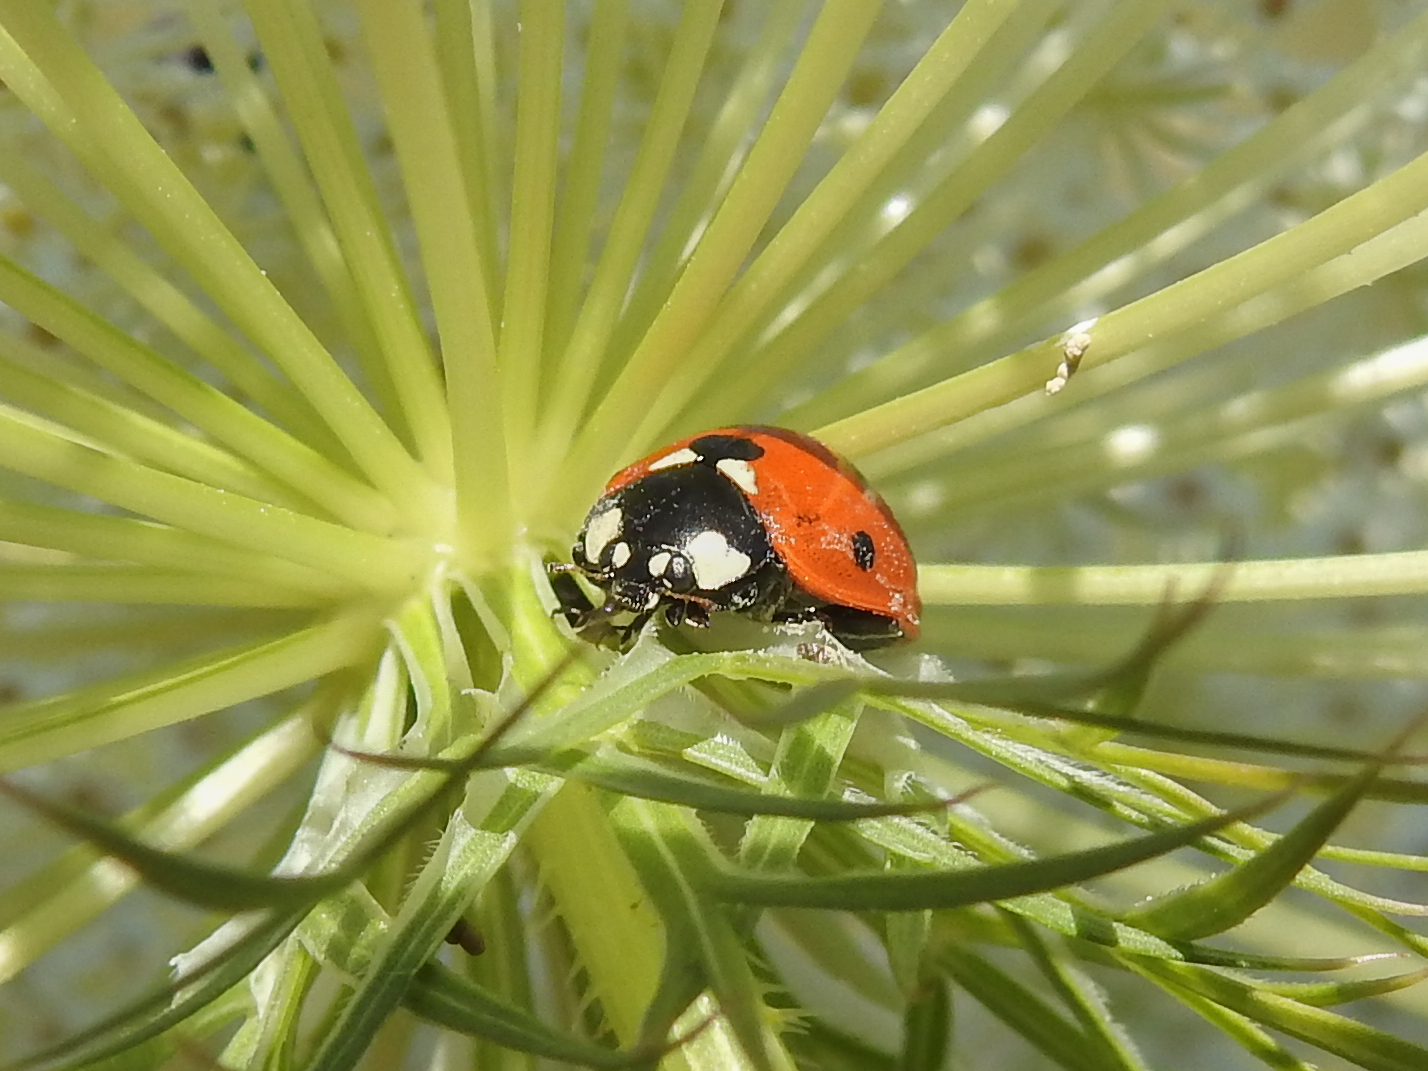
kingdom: Animalia
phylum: Arthropoda
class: Insecta
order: Coleoptera
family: Coccinellidae
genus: Coccinella
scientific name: Coccinella septempunctata
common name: Sevenspotted lady beetle
